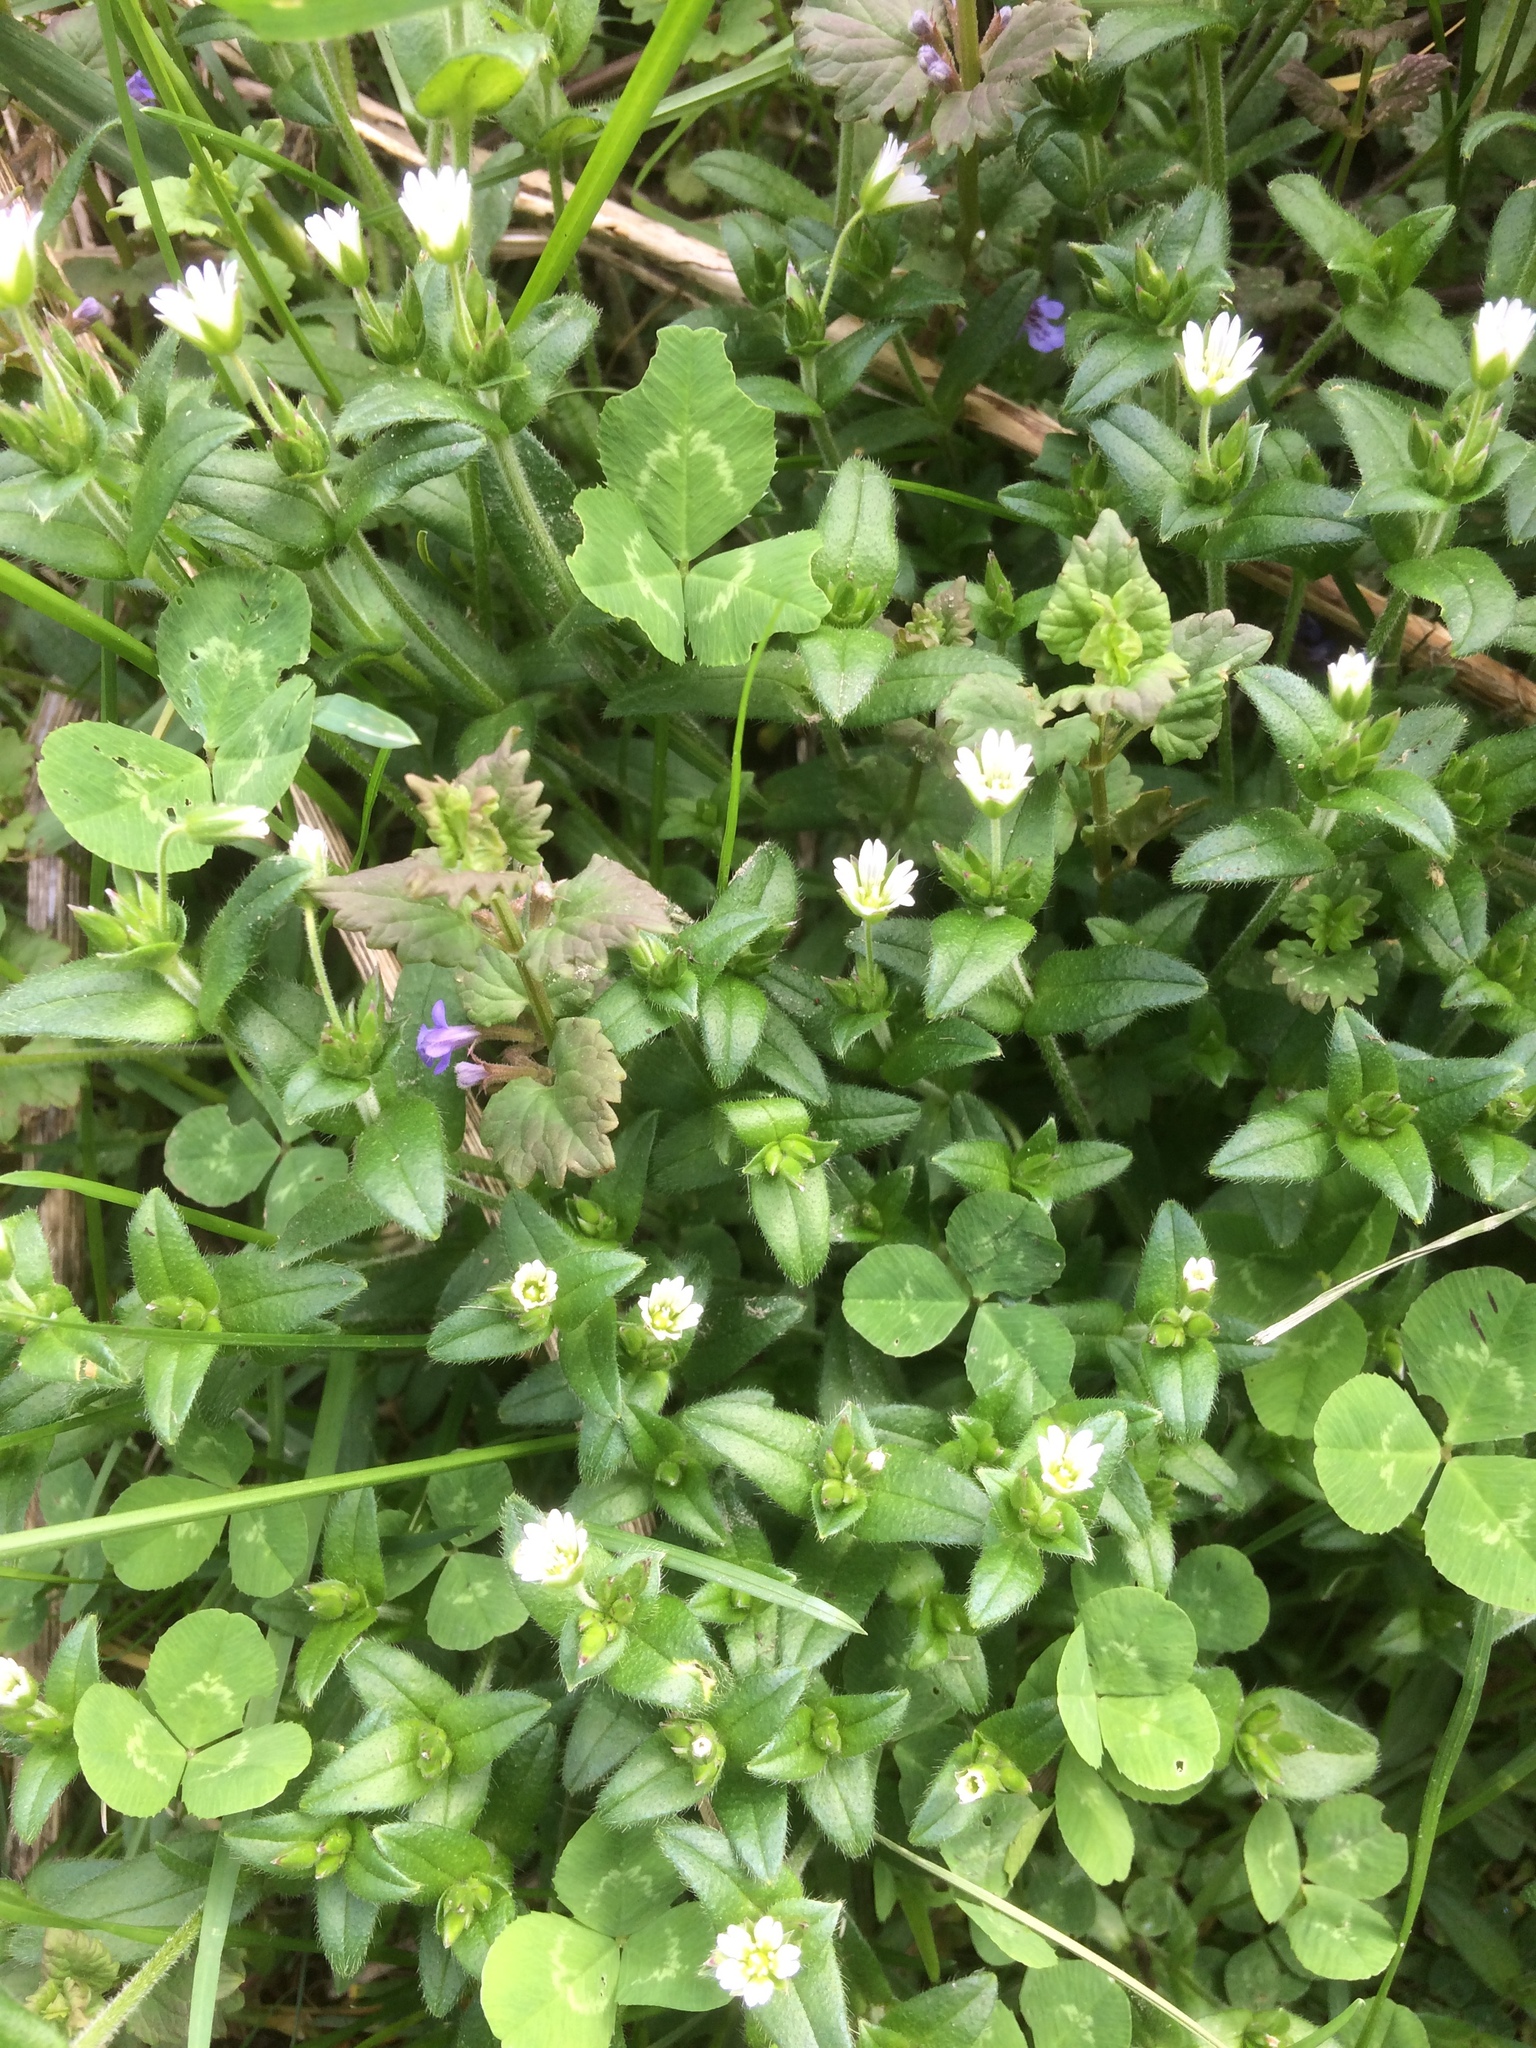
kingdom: Plantae
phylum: Tracheophyta
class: Magnoliopsida
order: Caryophyllales
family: Caryophyllaceae
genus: Cerastium
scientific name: Cerastium fontanum
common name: Common mouse-ear
